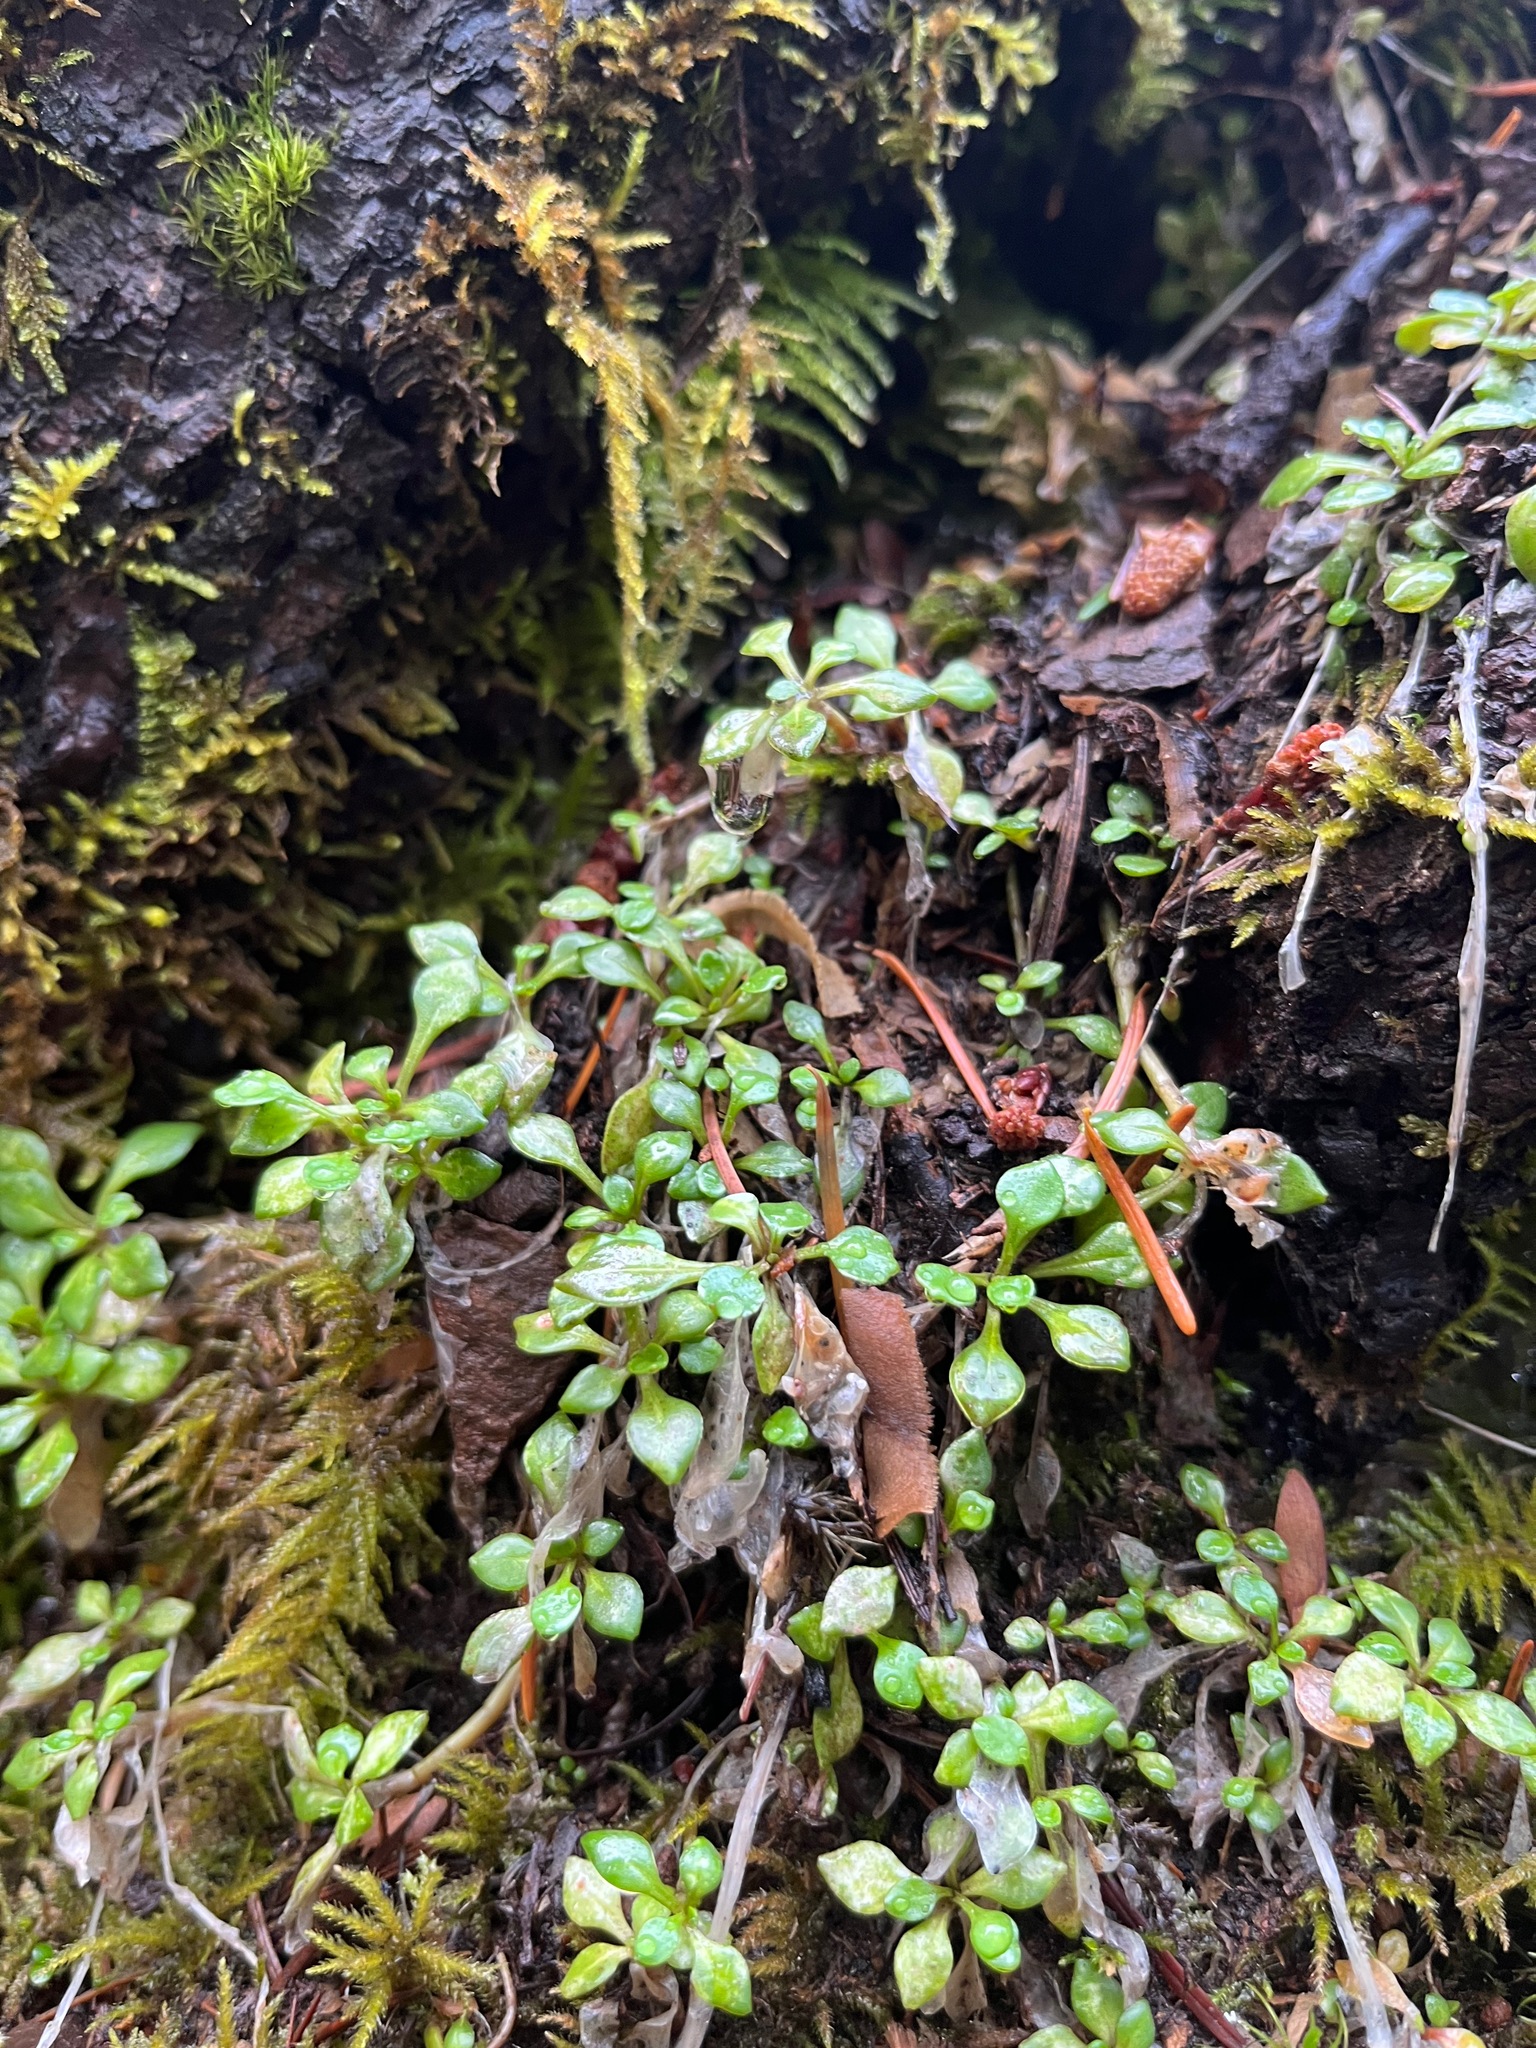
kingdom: Plantae
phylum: Tracheophyta
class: Magnoliopsida
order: Caryophyllales
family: Montiaceae
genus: Montia
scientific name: Montia parvifolia
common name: Small-leaved blinks
